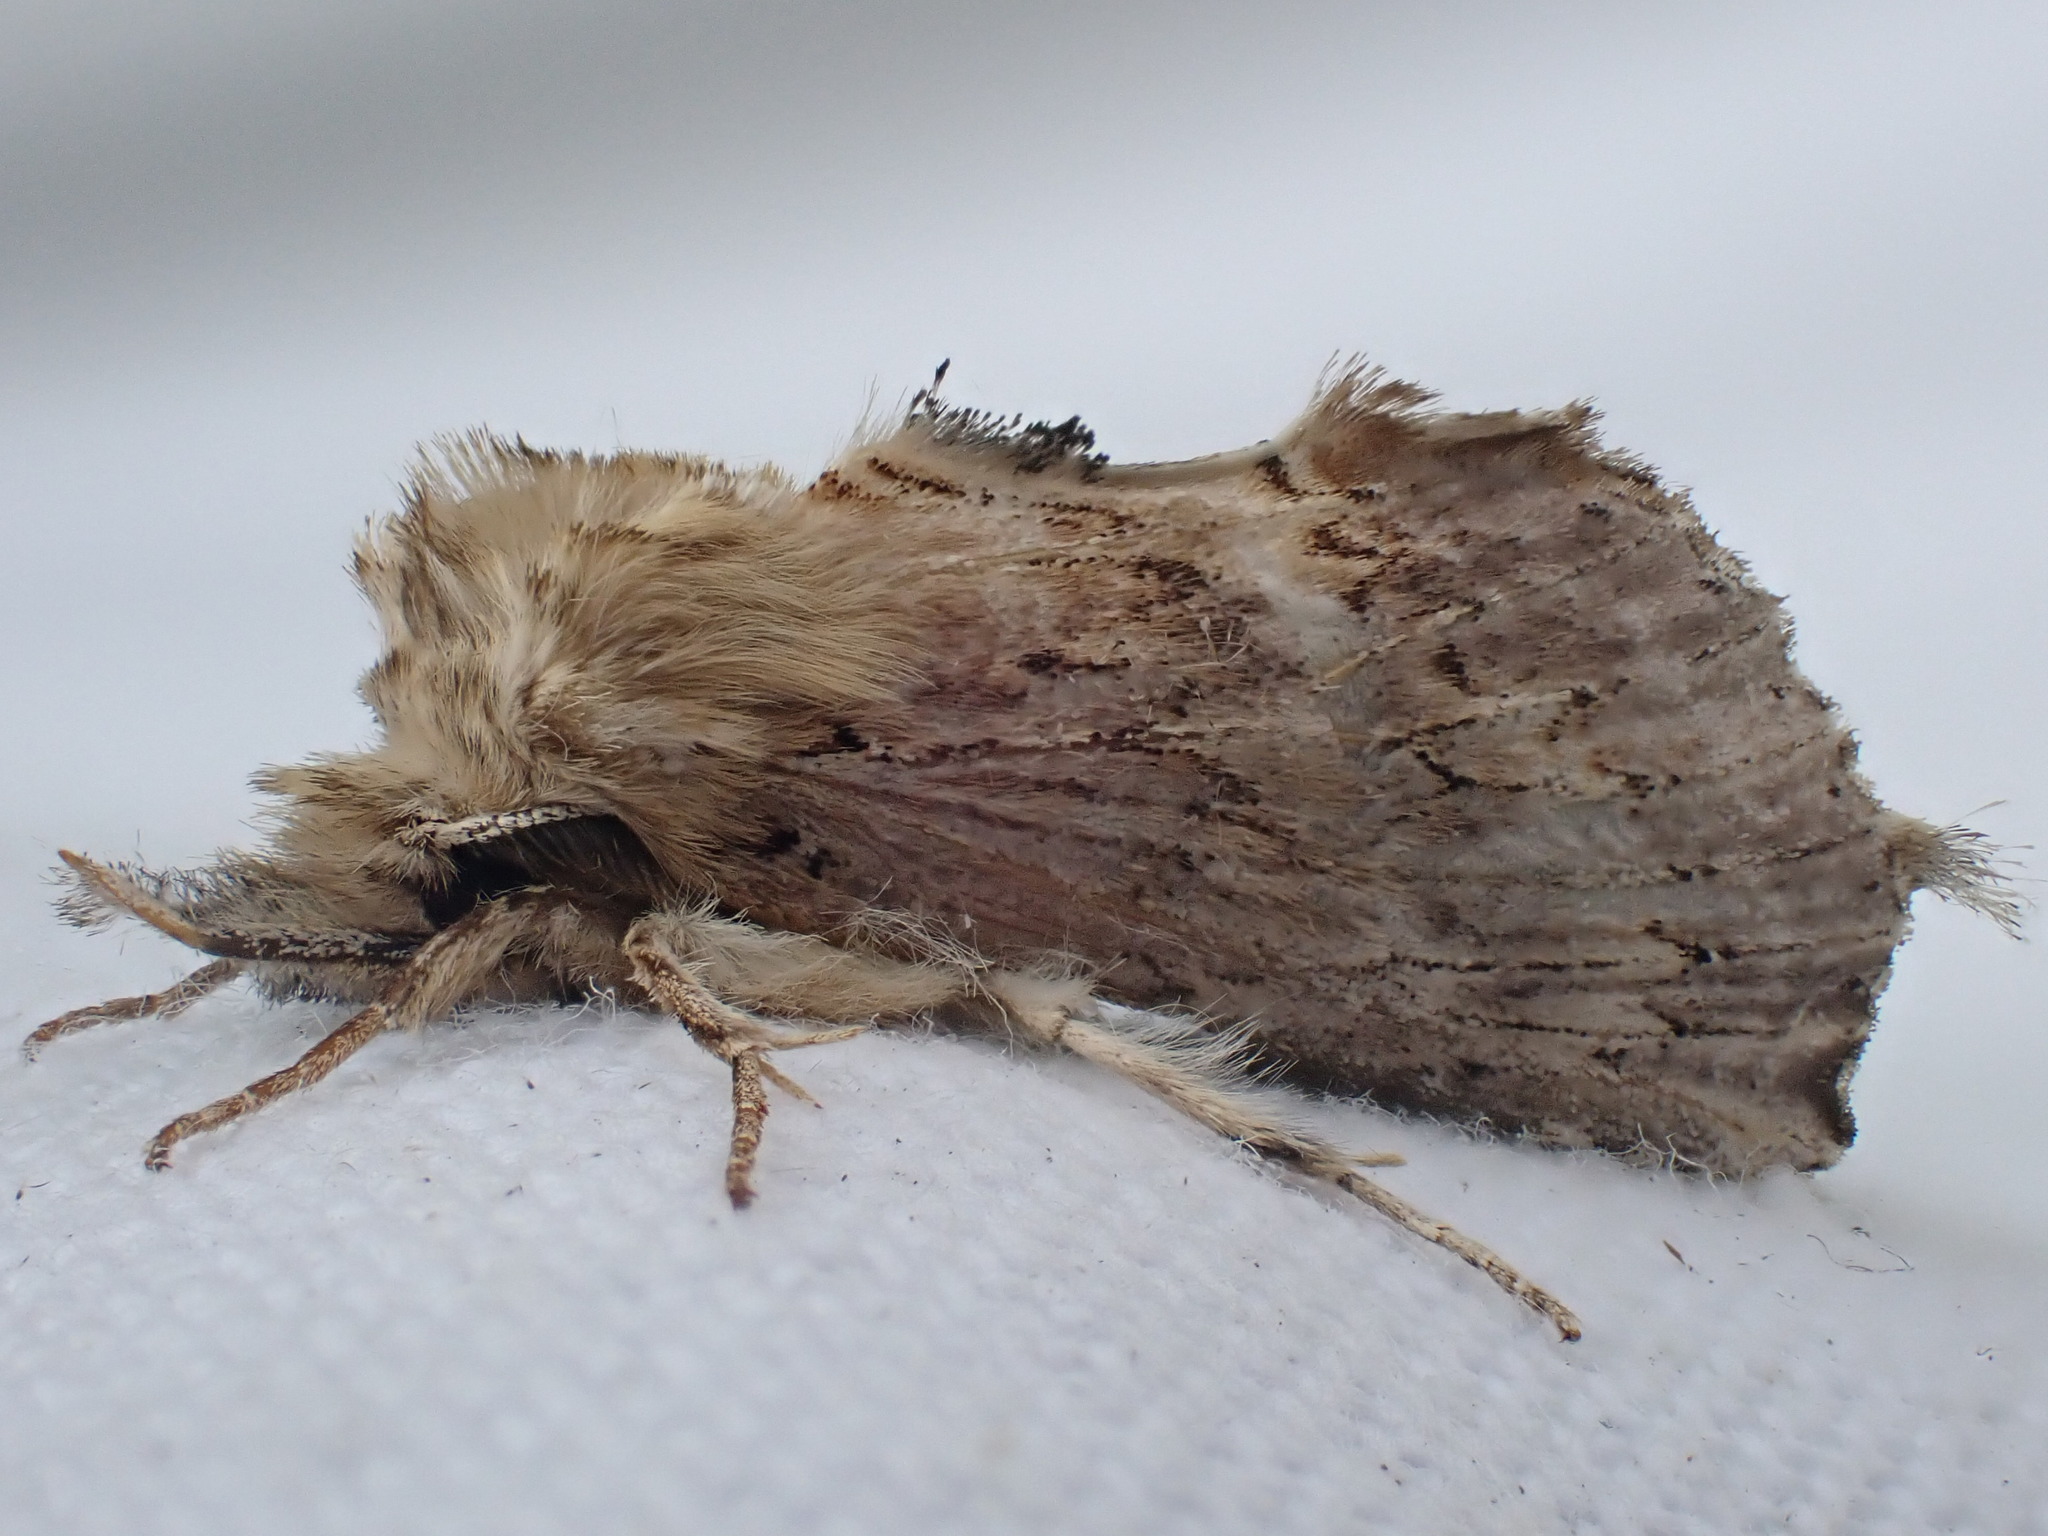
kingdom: Animalia
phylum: Arthropoda
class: Insecta
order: Lepidoptera
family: Notodontidae
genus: Pterostoma
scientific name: Pterostoma palpina
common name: Pale prominent
